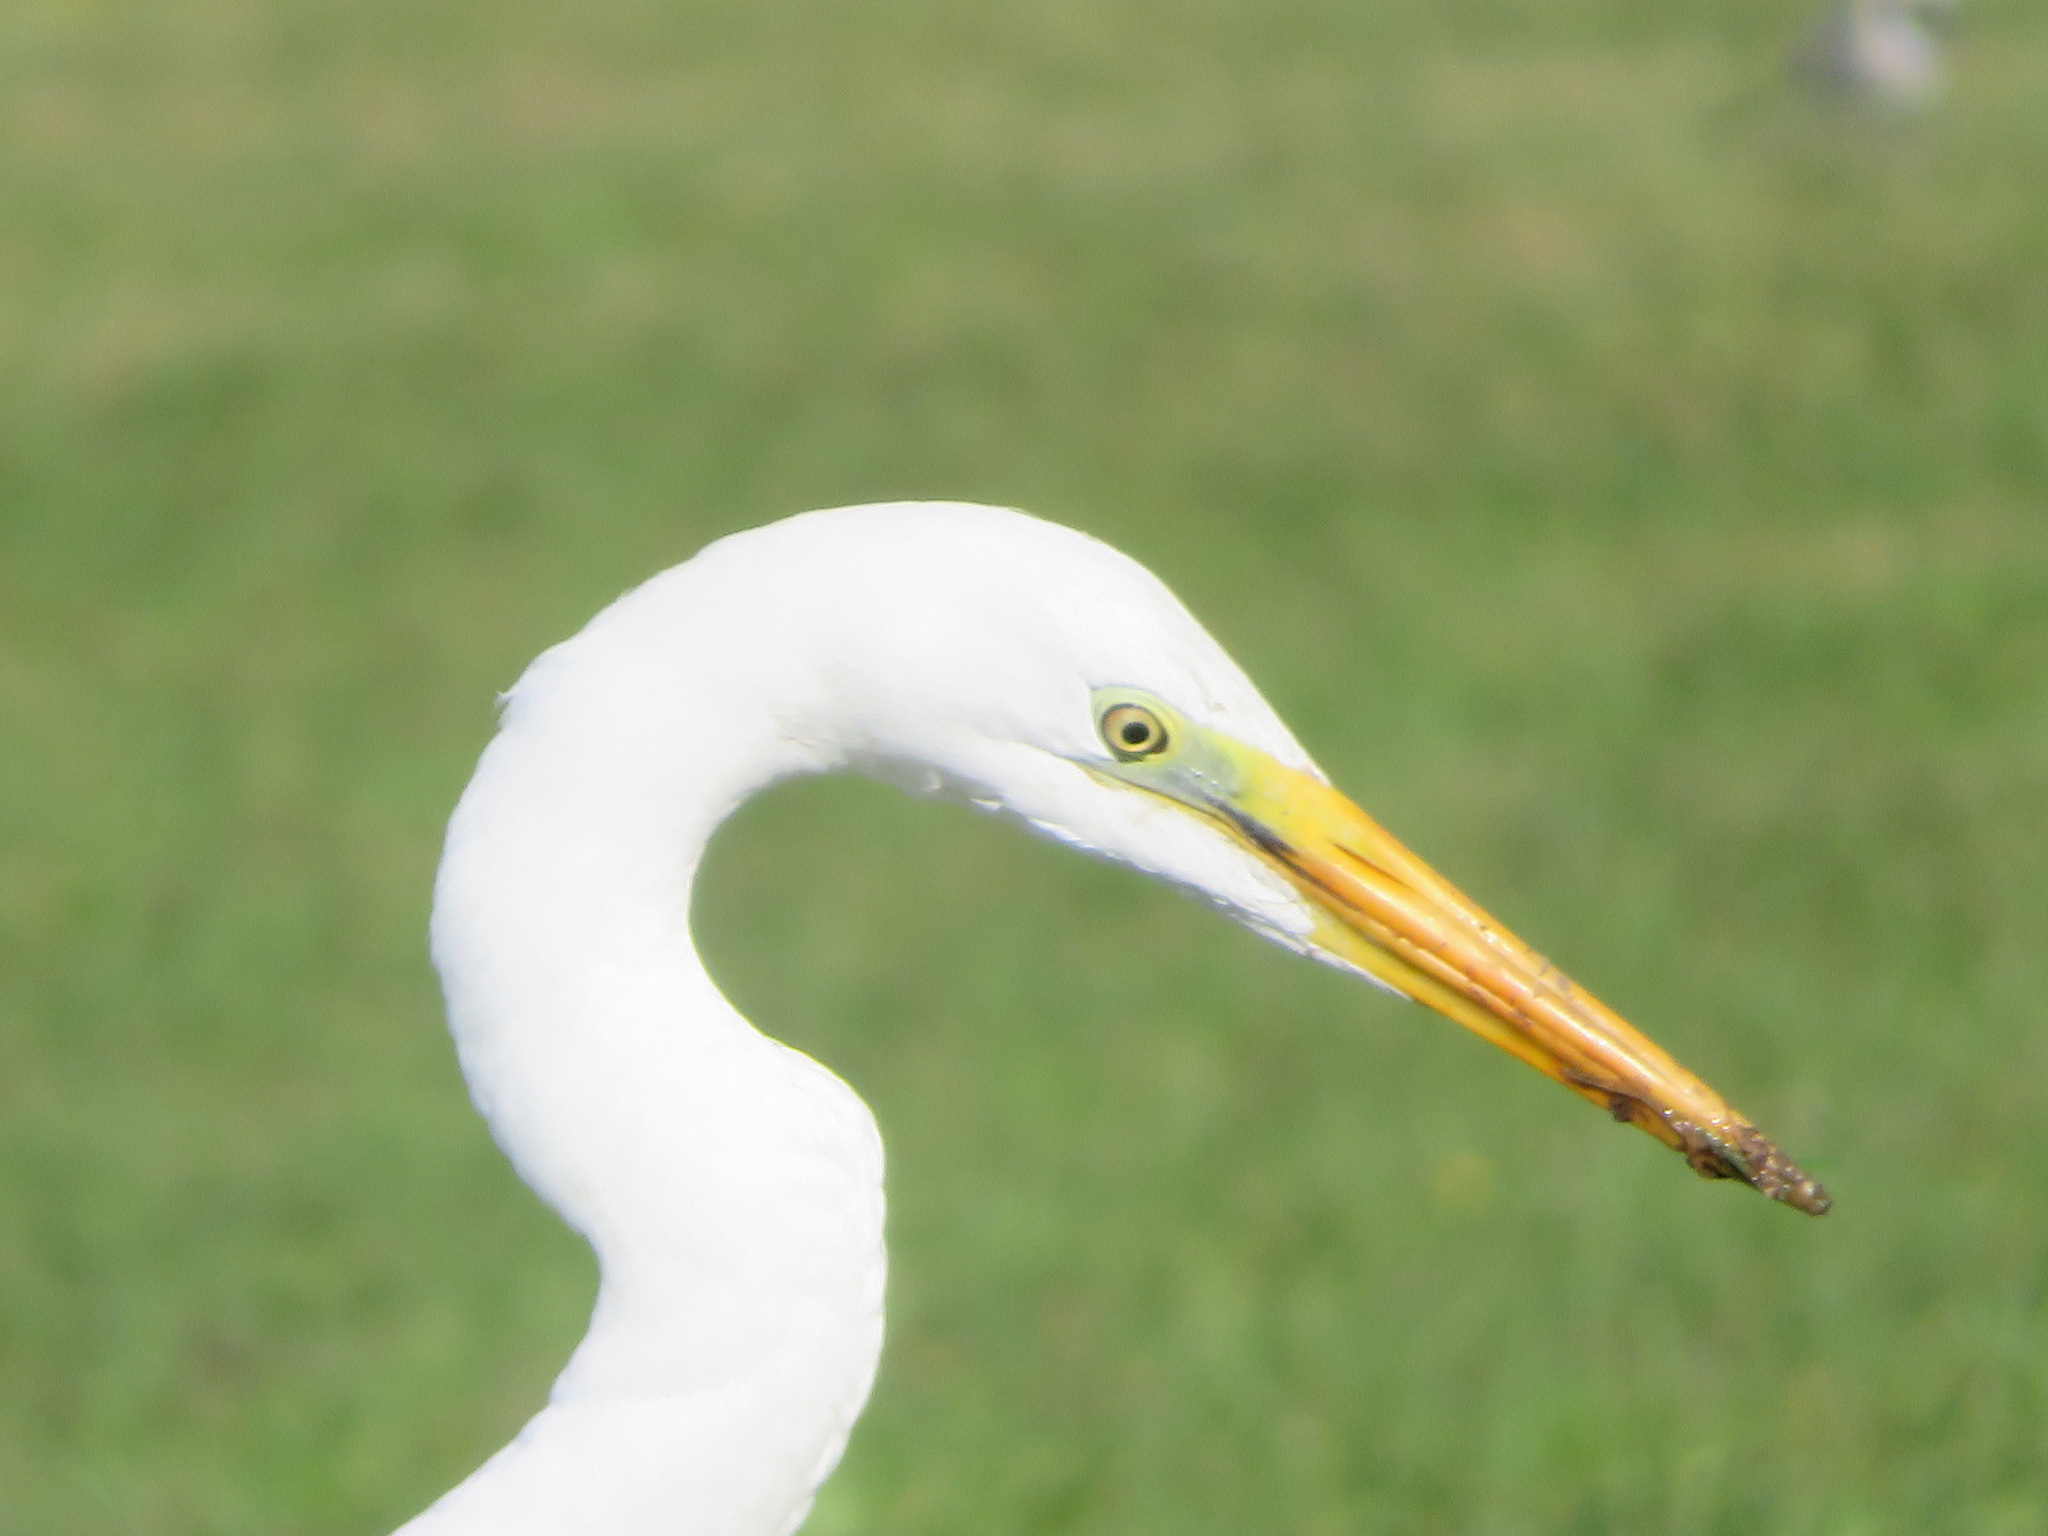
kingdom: Animalia
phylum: Chordata
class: Aves
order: Pelecaniformes
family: Ardeidae
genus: Ardea
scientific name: Ardea alba
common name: Great egret
